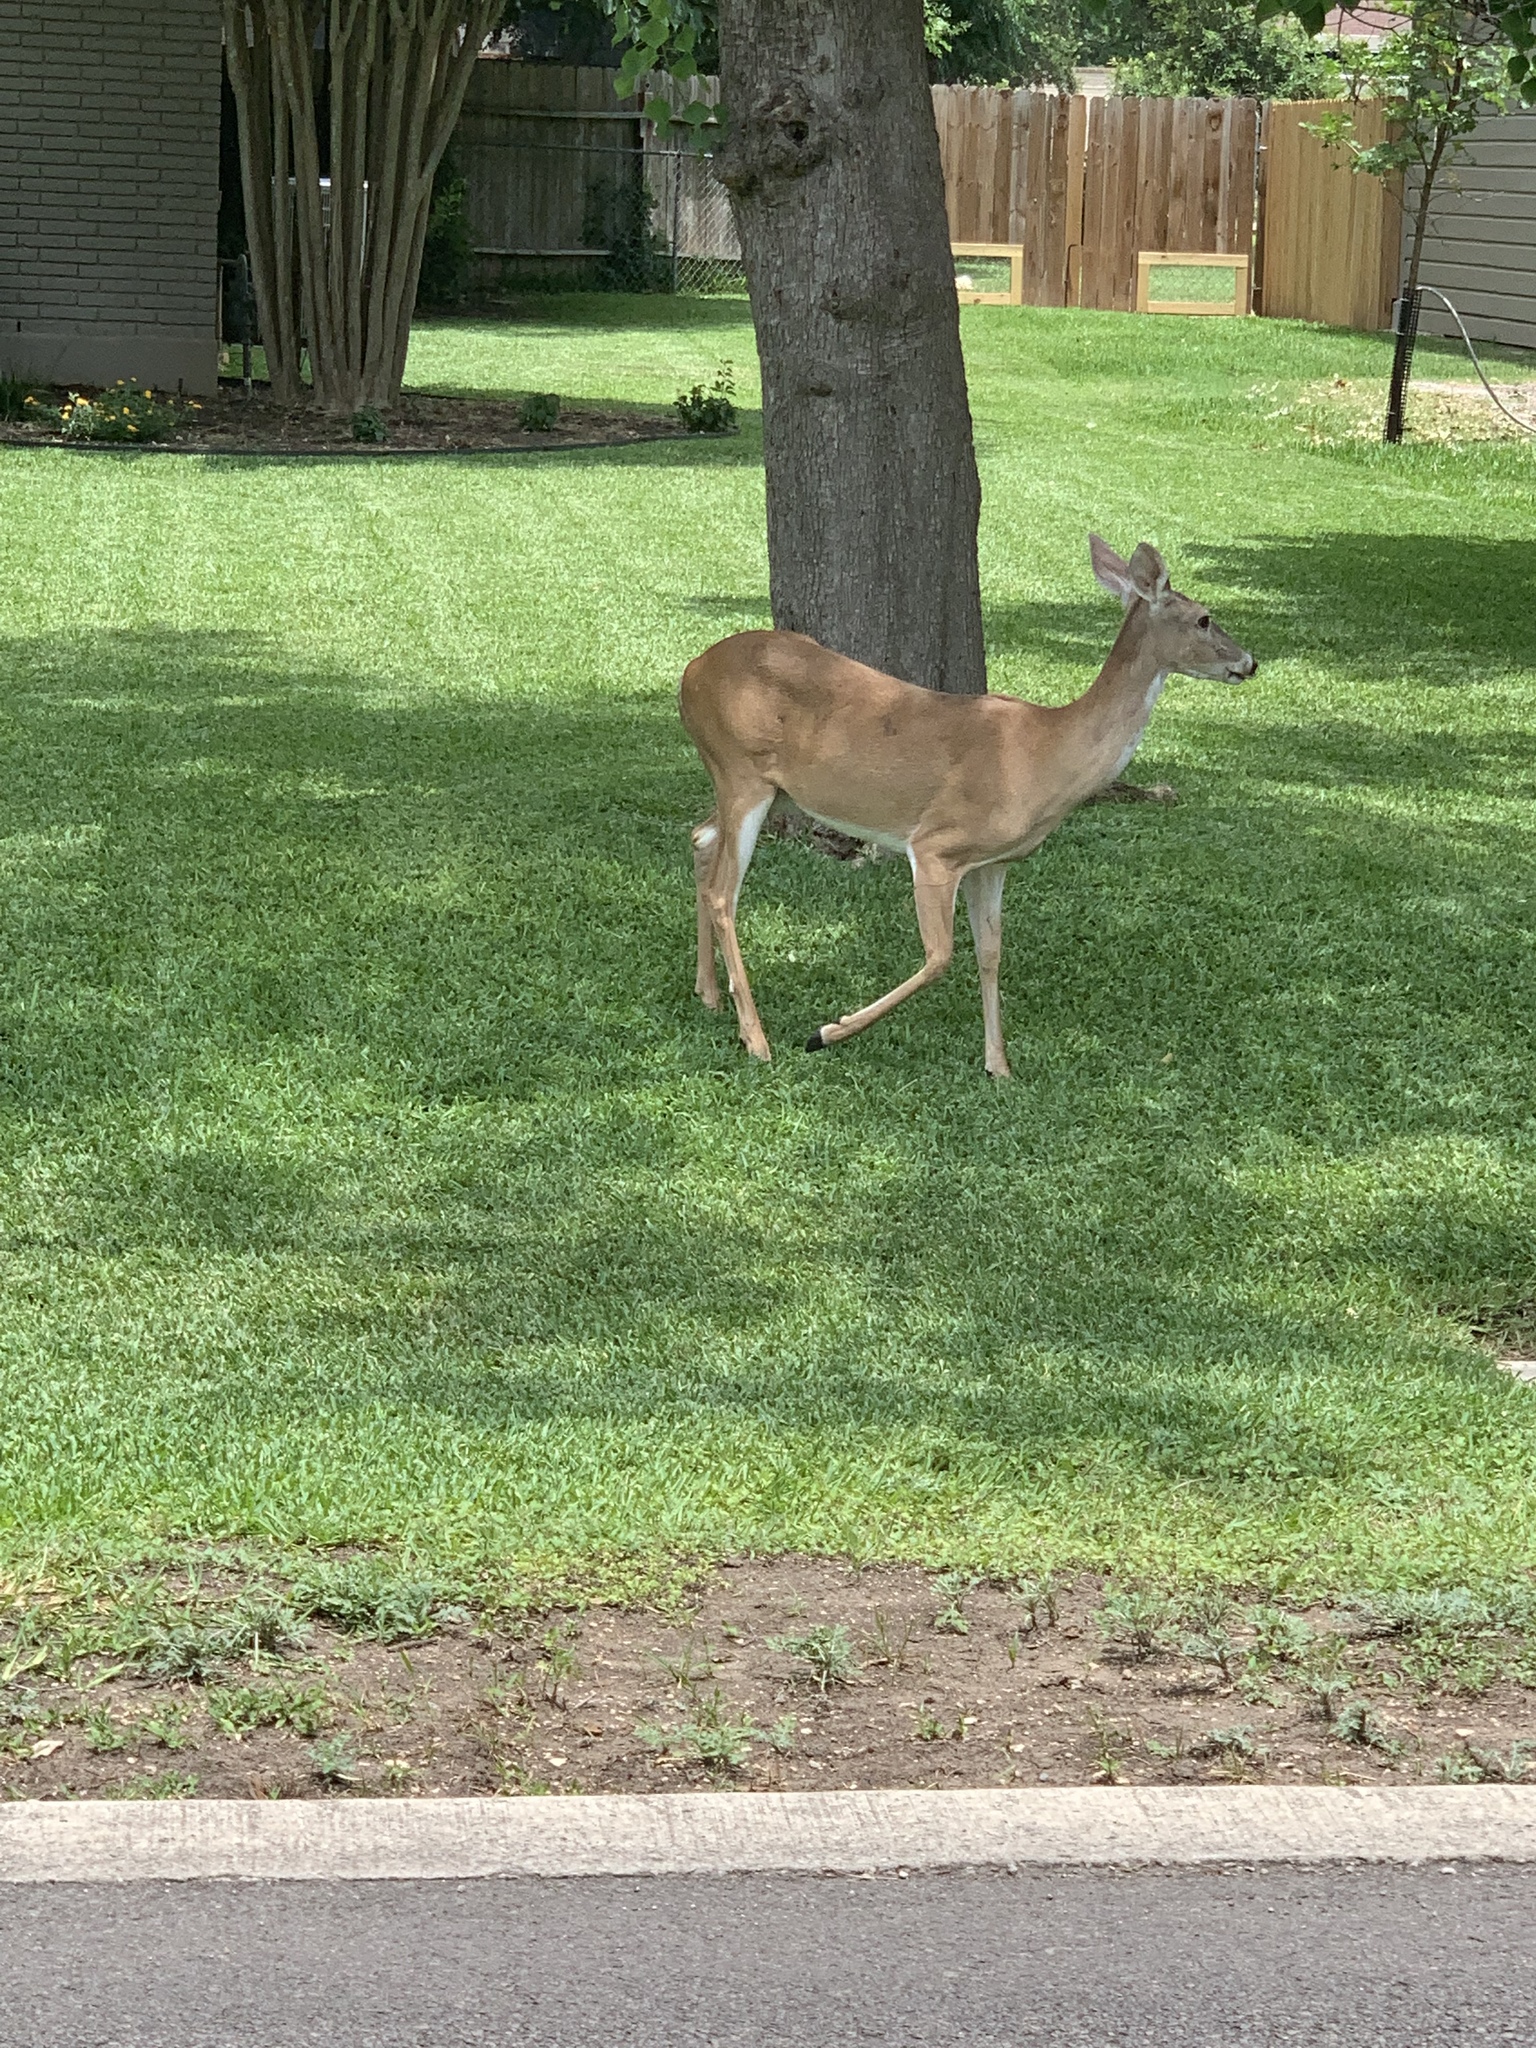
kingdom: Animalia
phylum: Chordata
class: Mammalia
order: Artiodactyla
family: Cervidae
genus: Odocoileus
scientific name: Odocoileus virginianus
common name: White-tailed deer
